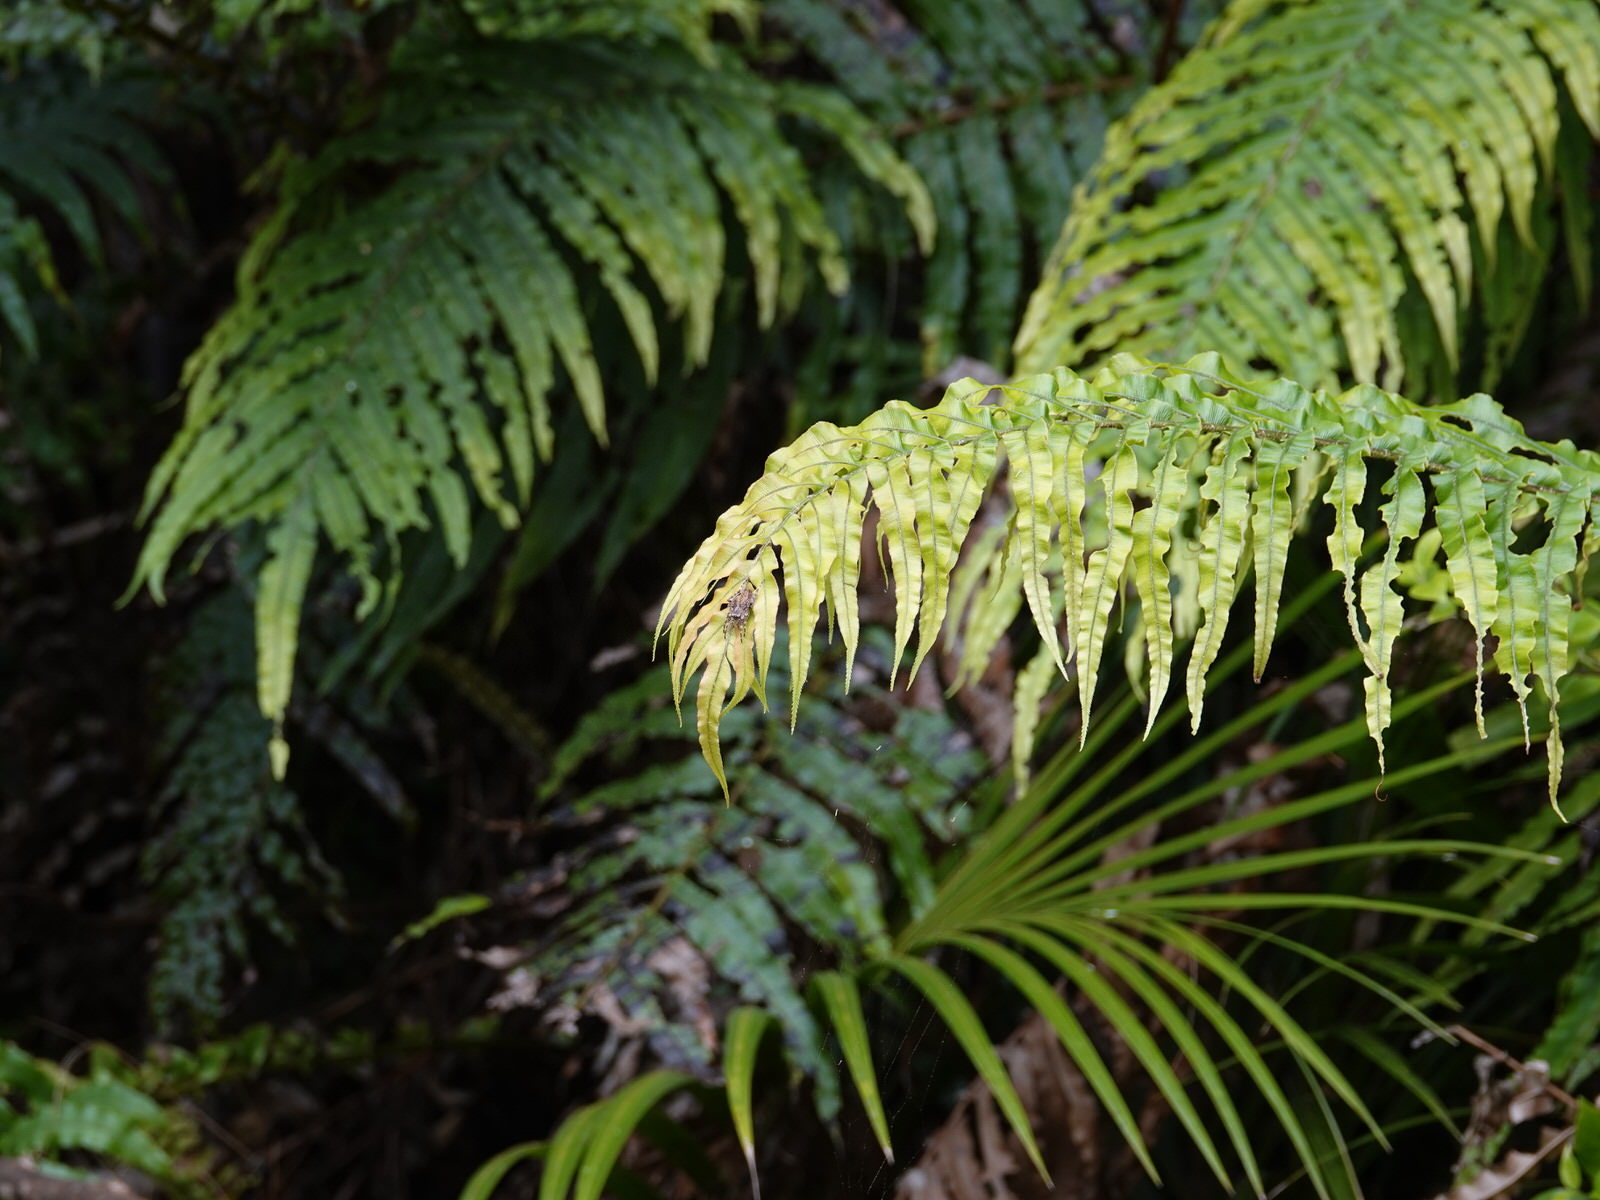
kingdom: Animalia
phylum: Arthropoda
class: Arachnida
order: Araneae
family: Araneidae
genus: Eriophora
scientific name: Eriophora pustulosa
